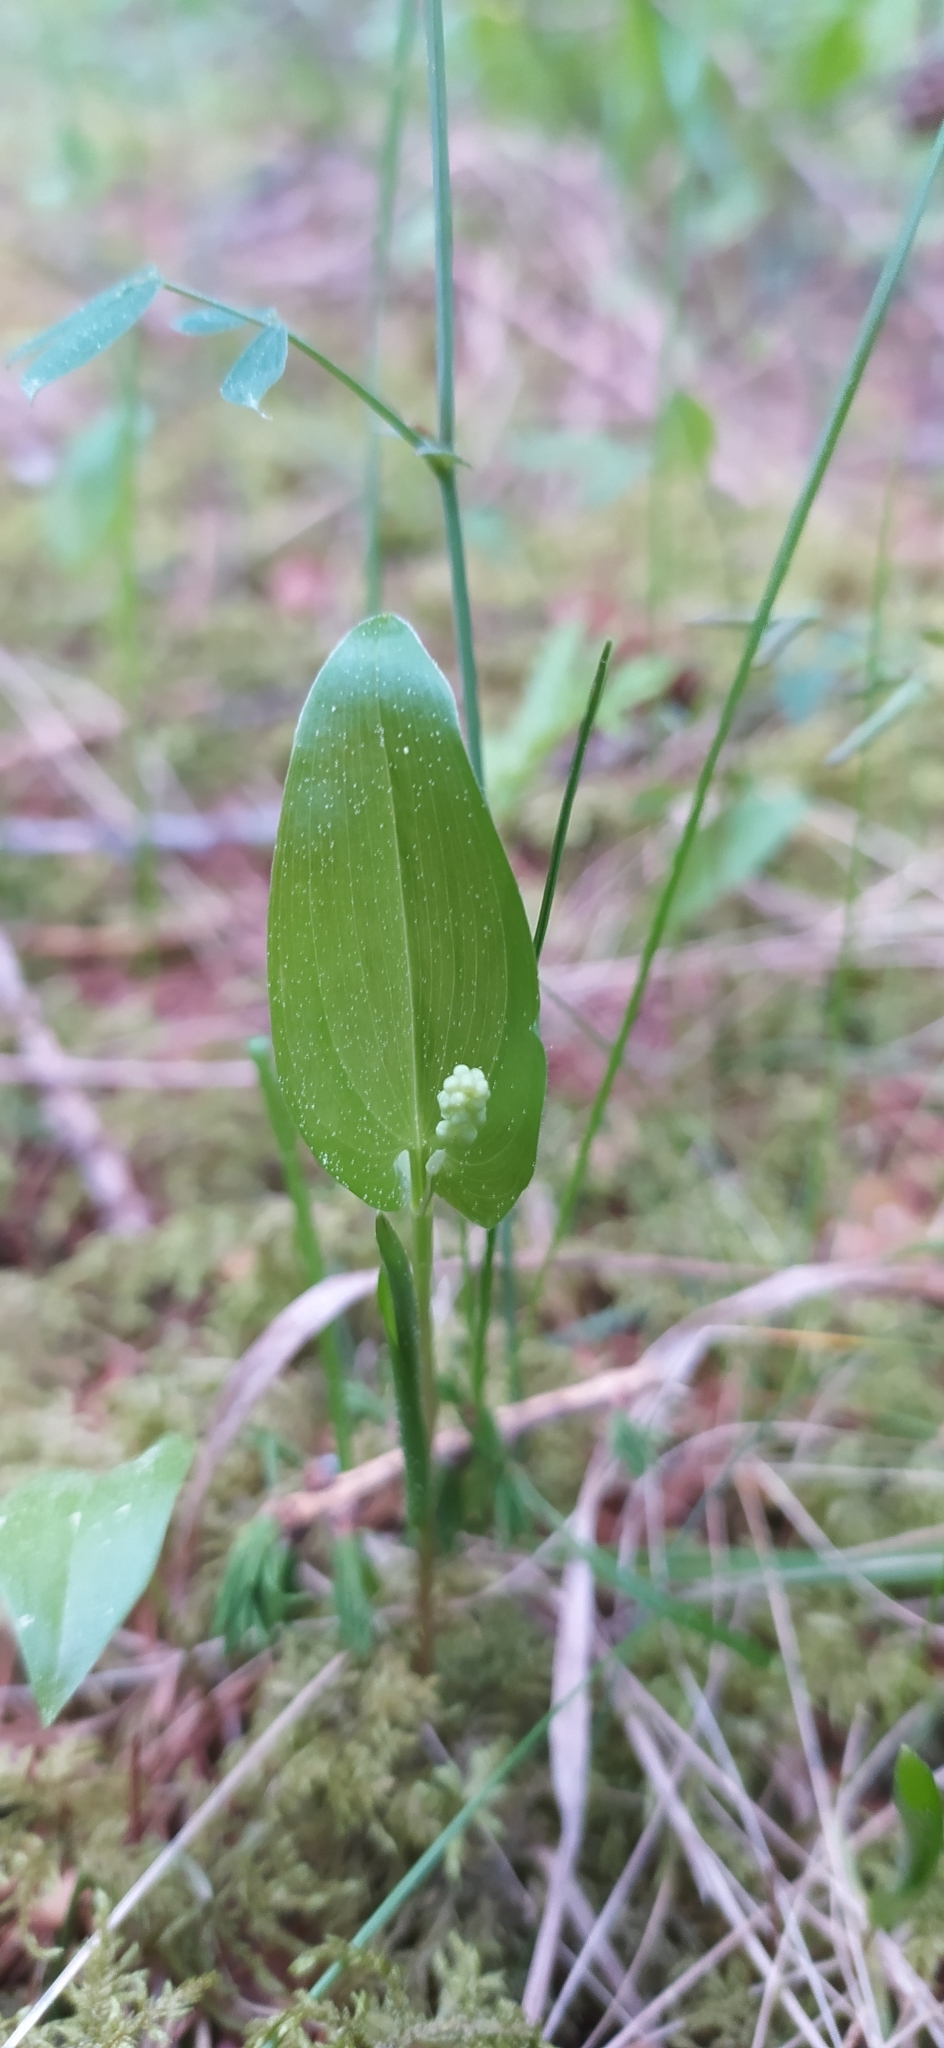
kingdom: Plantae
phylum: Tracheophyta
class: Liliopsida
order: Asparagales
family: Asparagaceae
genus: Maianthemum
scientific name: Maianthemum bifolium
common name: May lily
